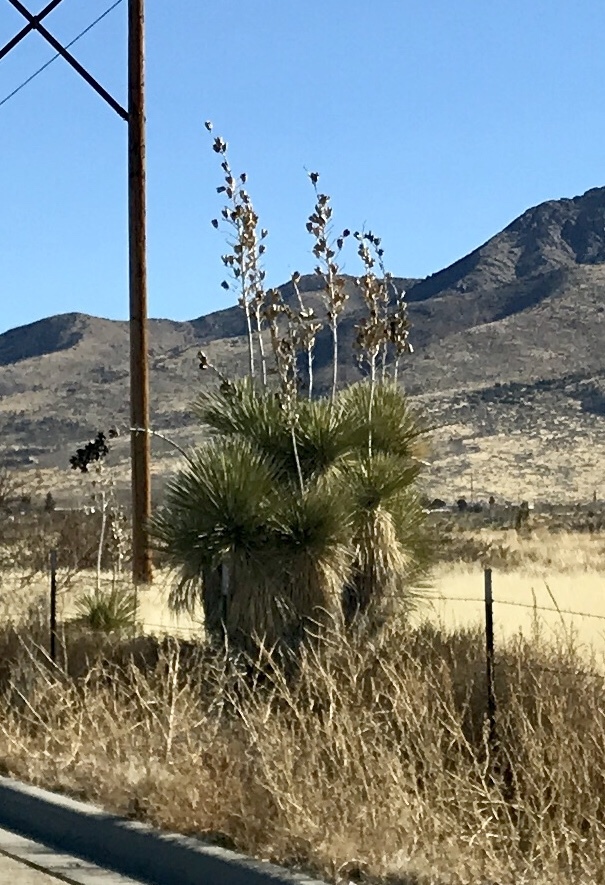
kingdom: Plantae
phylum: Tracheophyta
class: Liliopsida
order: Asparagales
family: Asparagaceae
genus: Yucca
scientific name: Yucca elata
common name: Palmella
